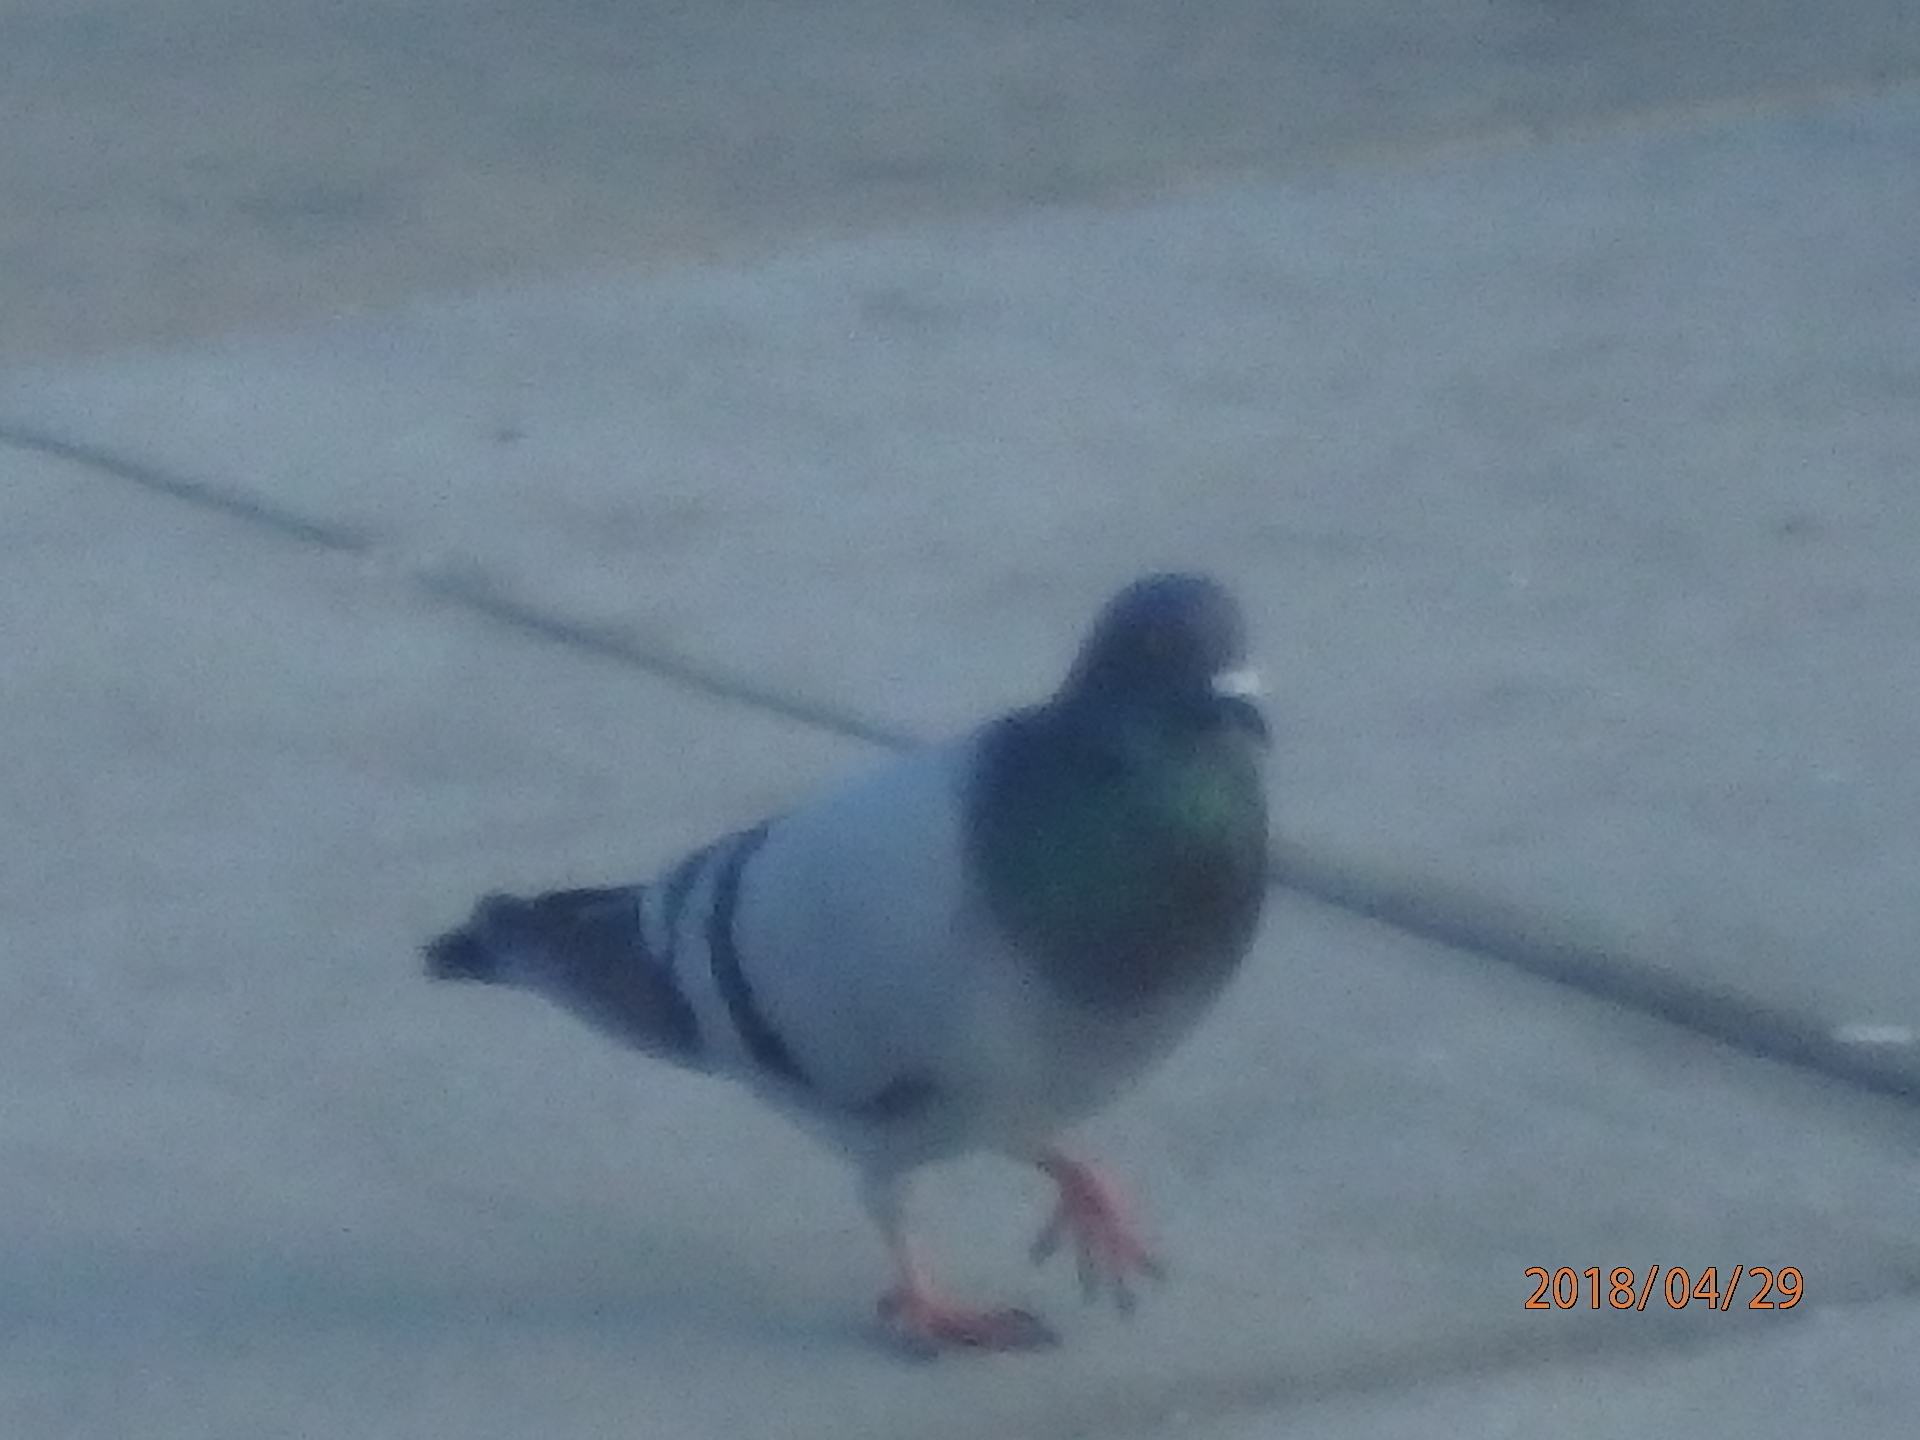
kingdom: Animalia
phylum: Chordata
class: Aves
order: Columbiformes
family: Columbidae
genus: Columba
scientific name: Columba livia
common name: Rock pigeon
